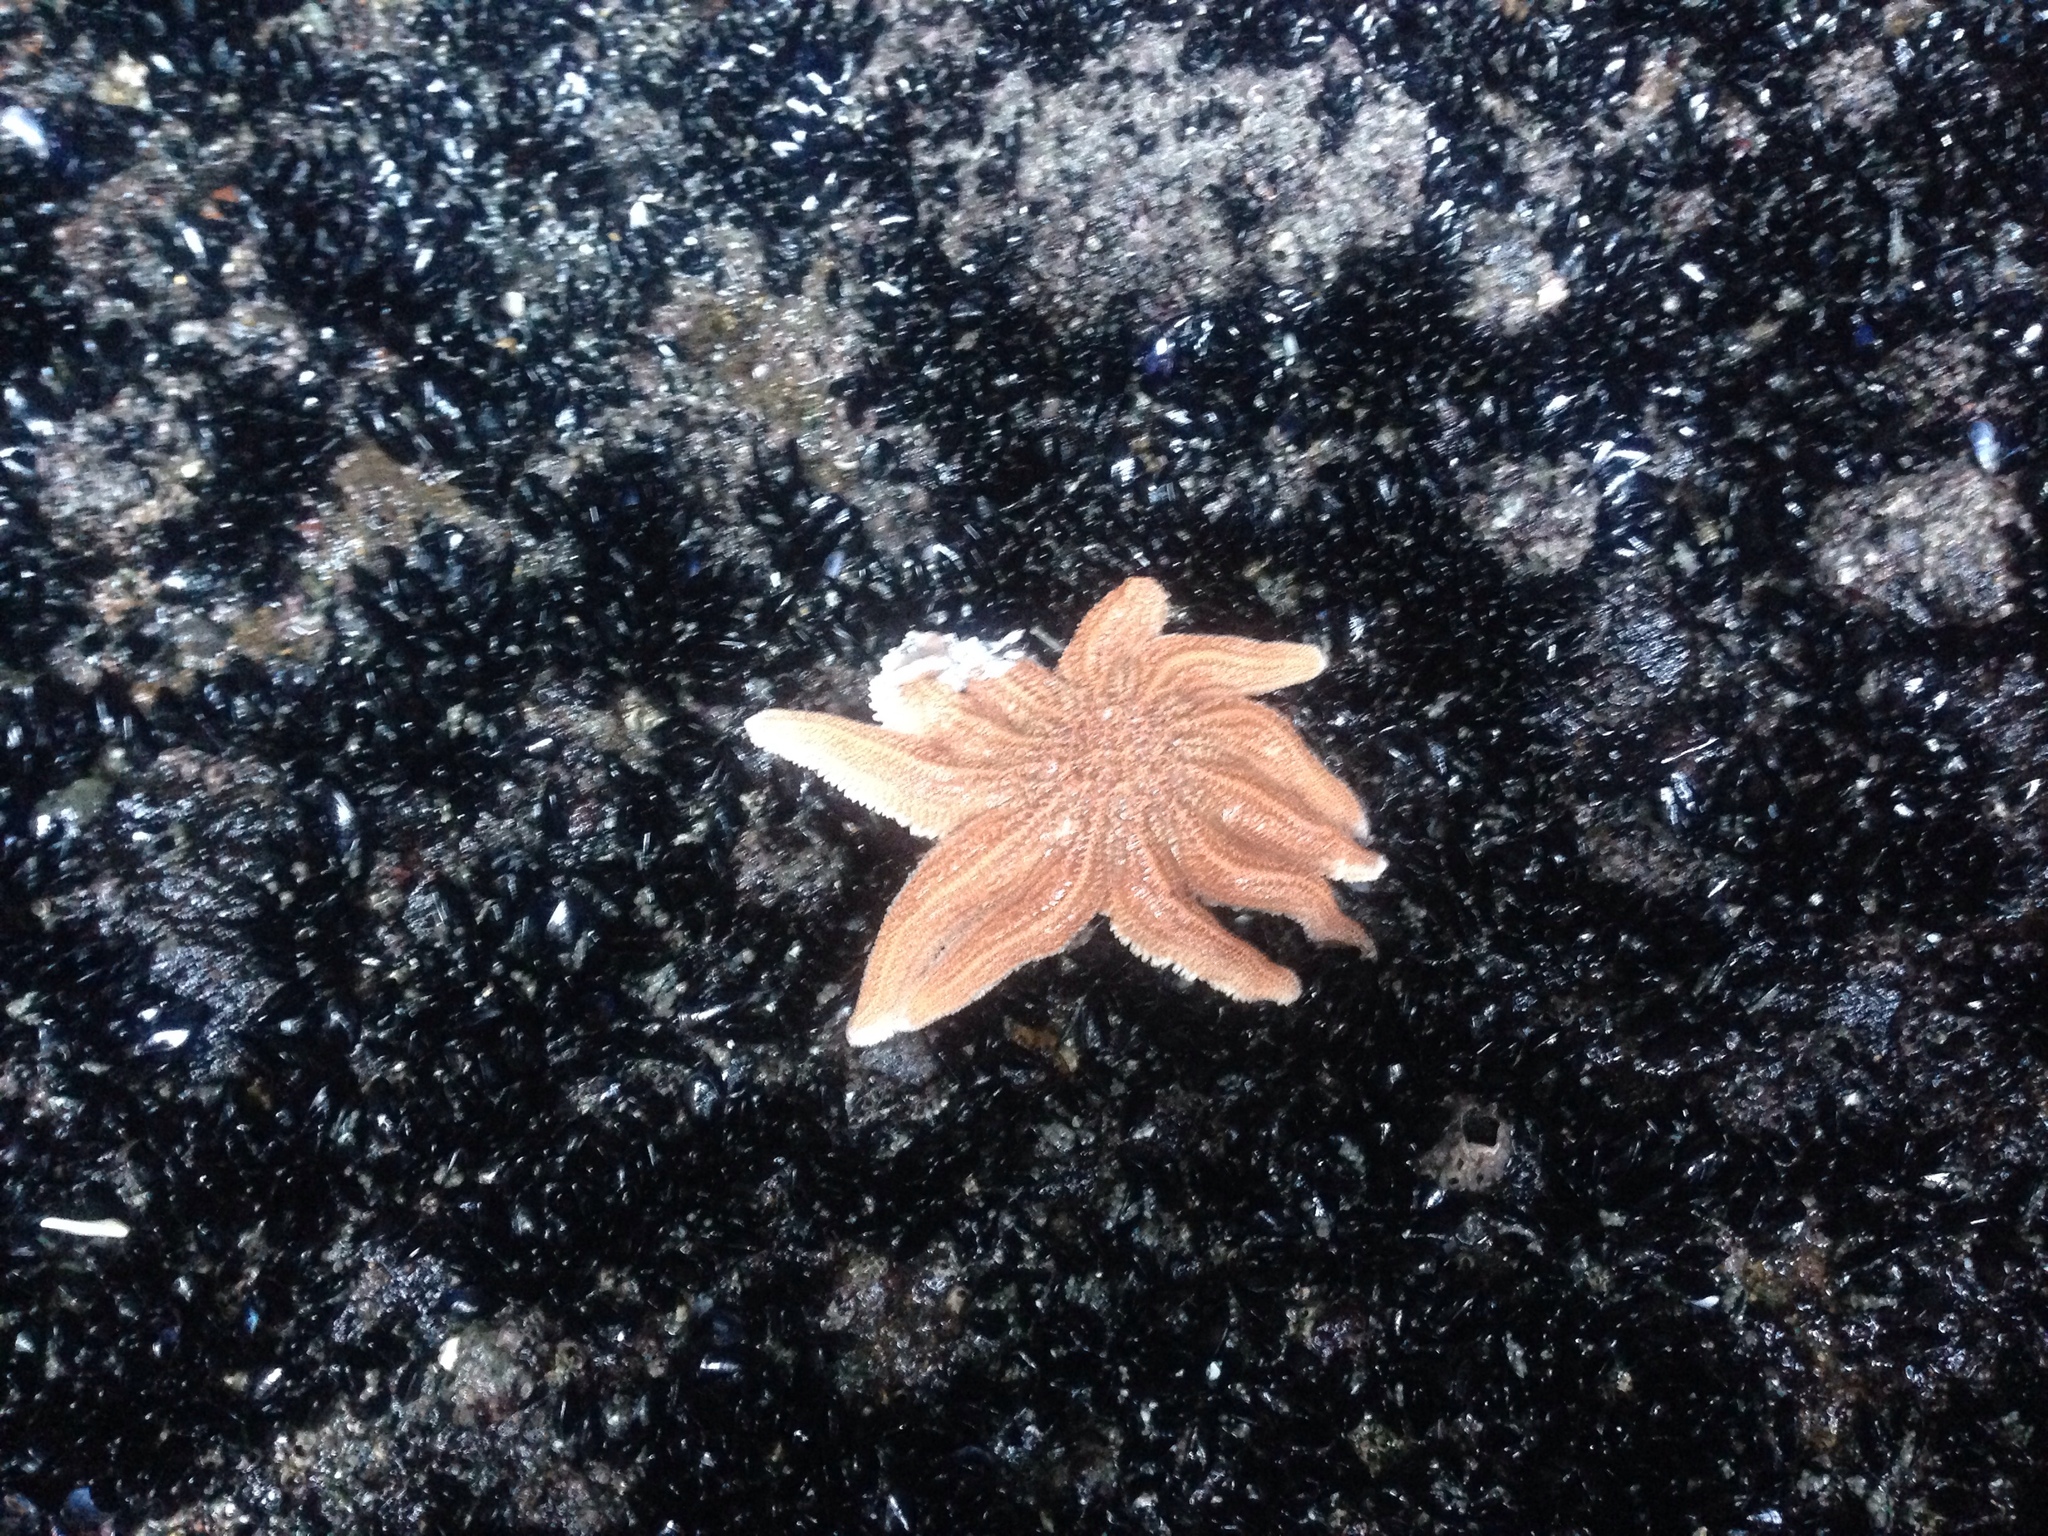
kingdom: Animalia
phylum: Echinodermata
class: Asteroidea
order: Forcipulatida
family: Stichasteridae
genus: Stichaster
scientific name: Stichaster australis
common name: Reef starfish
